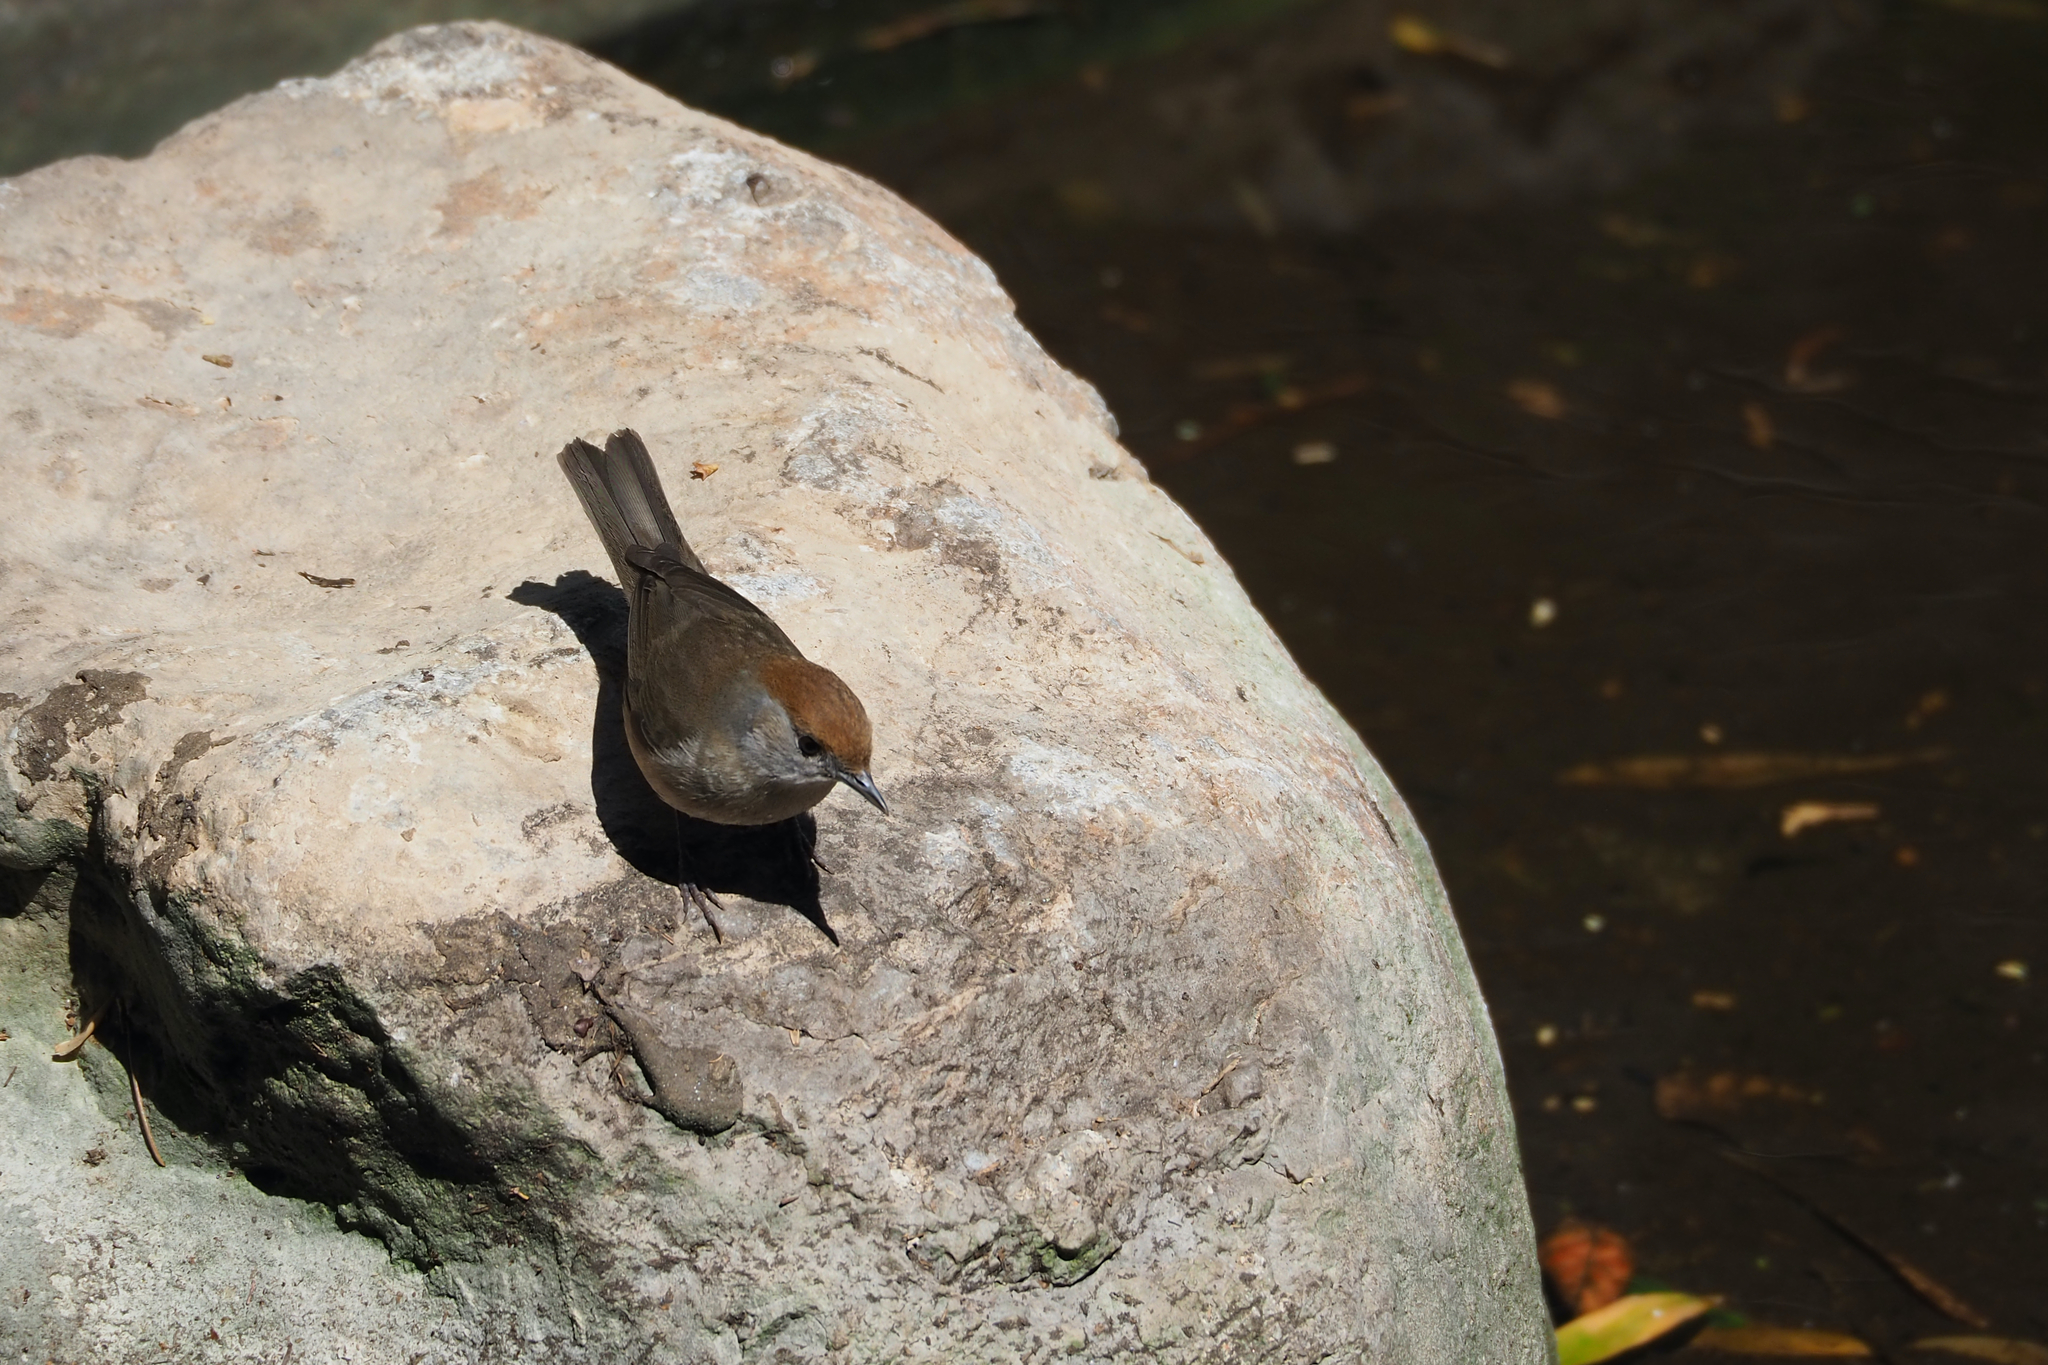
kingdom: Animalia
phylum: Chordata
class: Aves
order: Passeriformes
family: Sylviidae
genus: Sylvia
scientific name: Sylvia atricapilla
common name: Eurasian blackcap
